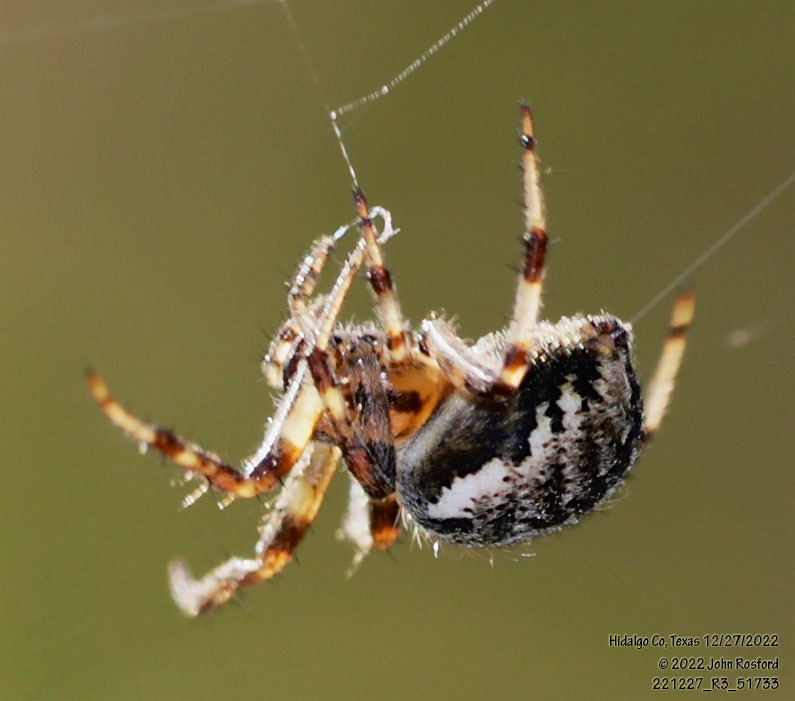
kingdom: Animalia
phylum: Arthropoda
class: Arachnida
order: Araneae
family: Araneidae
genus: Neoscona
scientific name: Neoscona arabesca
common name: Orb weavers
